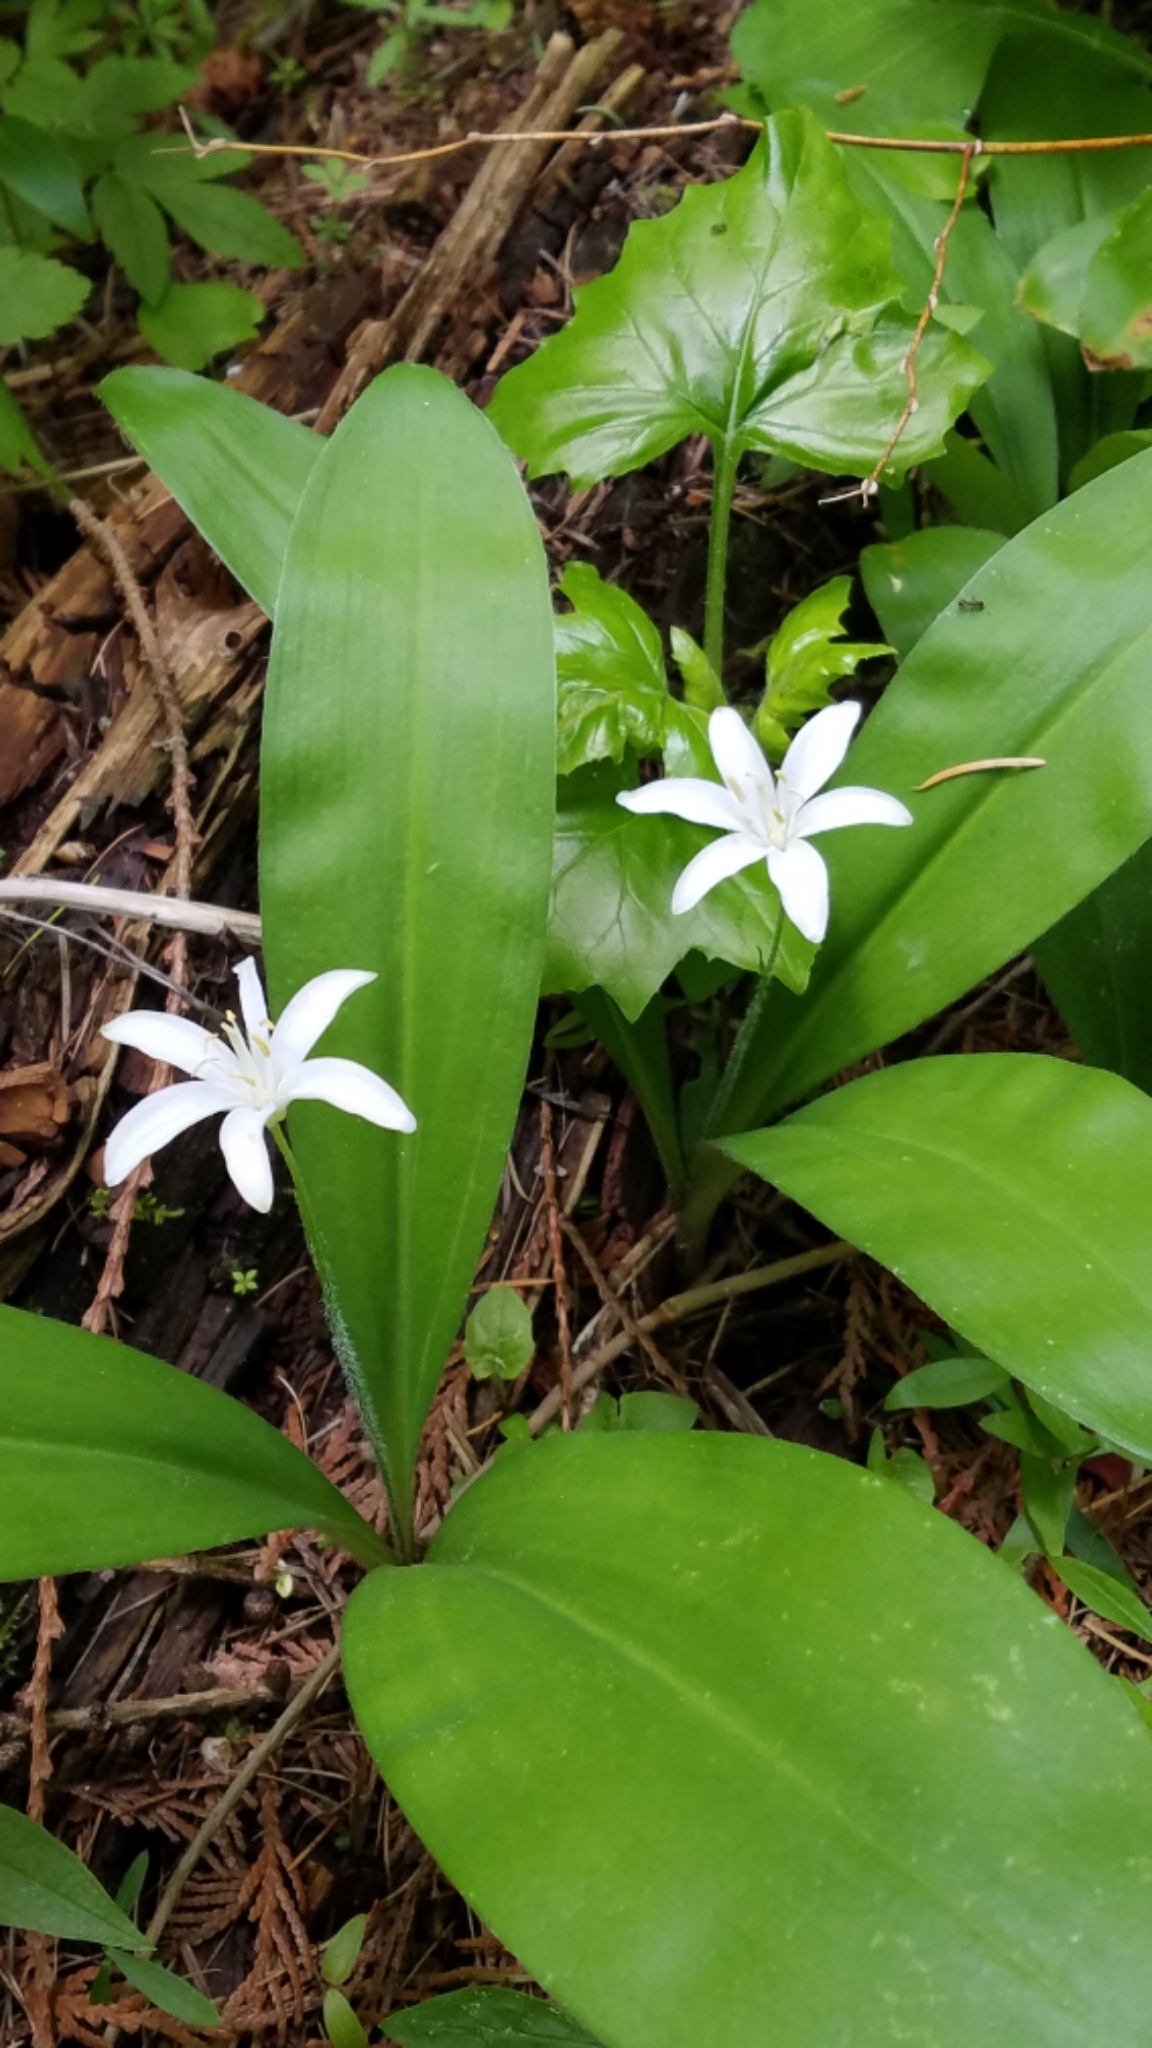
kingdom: Plantae
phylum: Tracheophyta
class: Liliopsida
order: Liliales
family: Liliaceae
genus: Clintonia
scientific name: Clintonia uniflora
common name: Queen's cup
